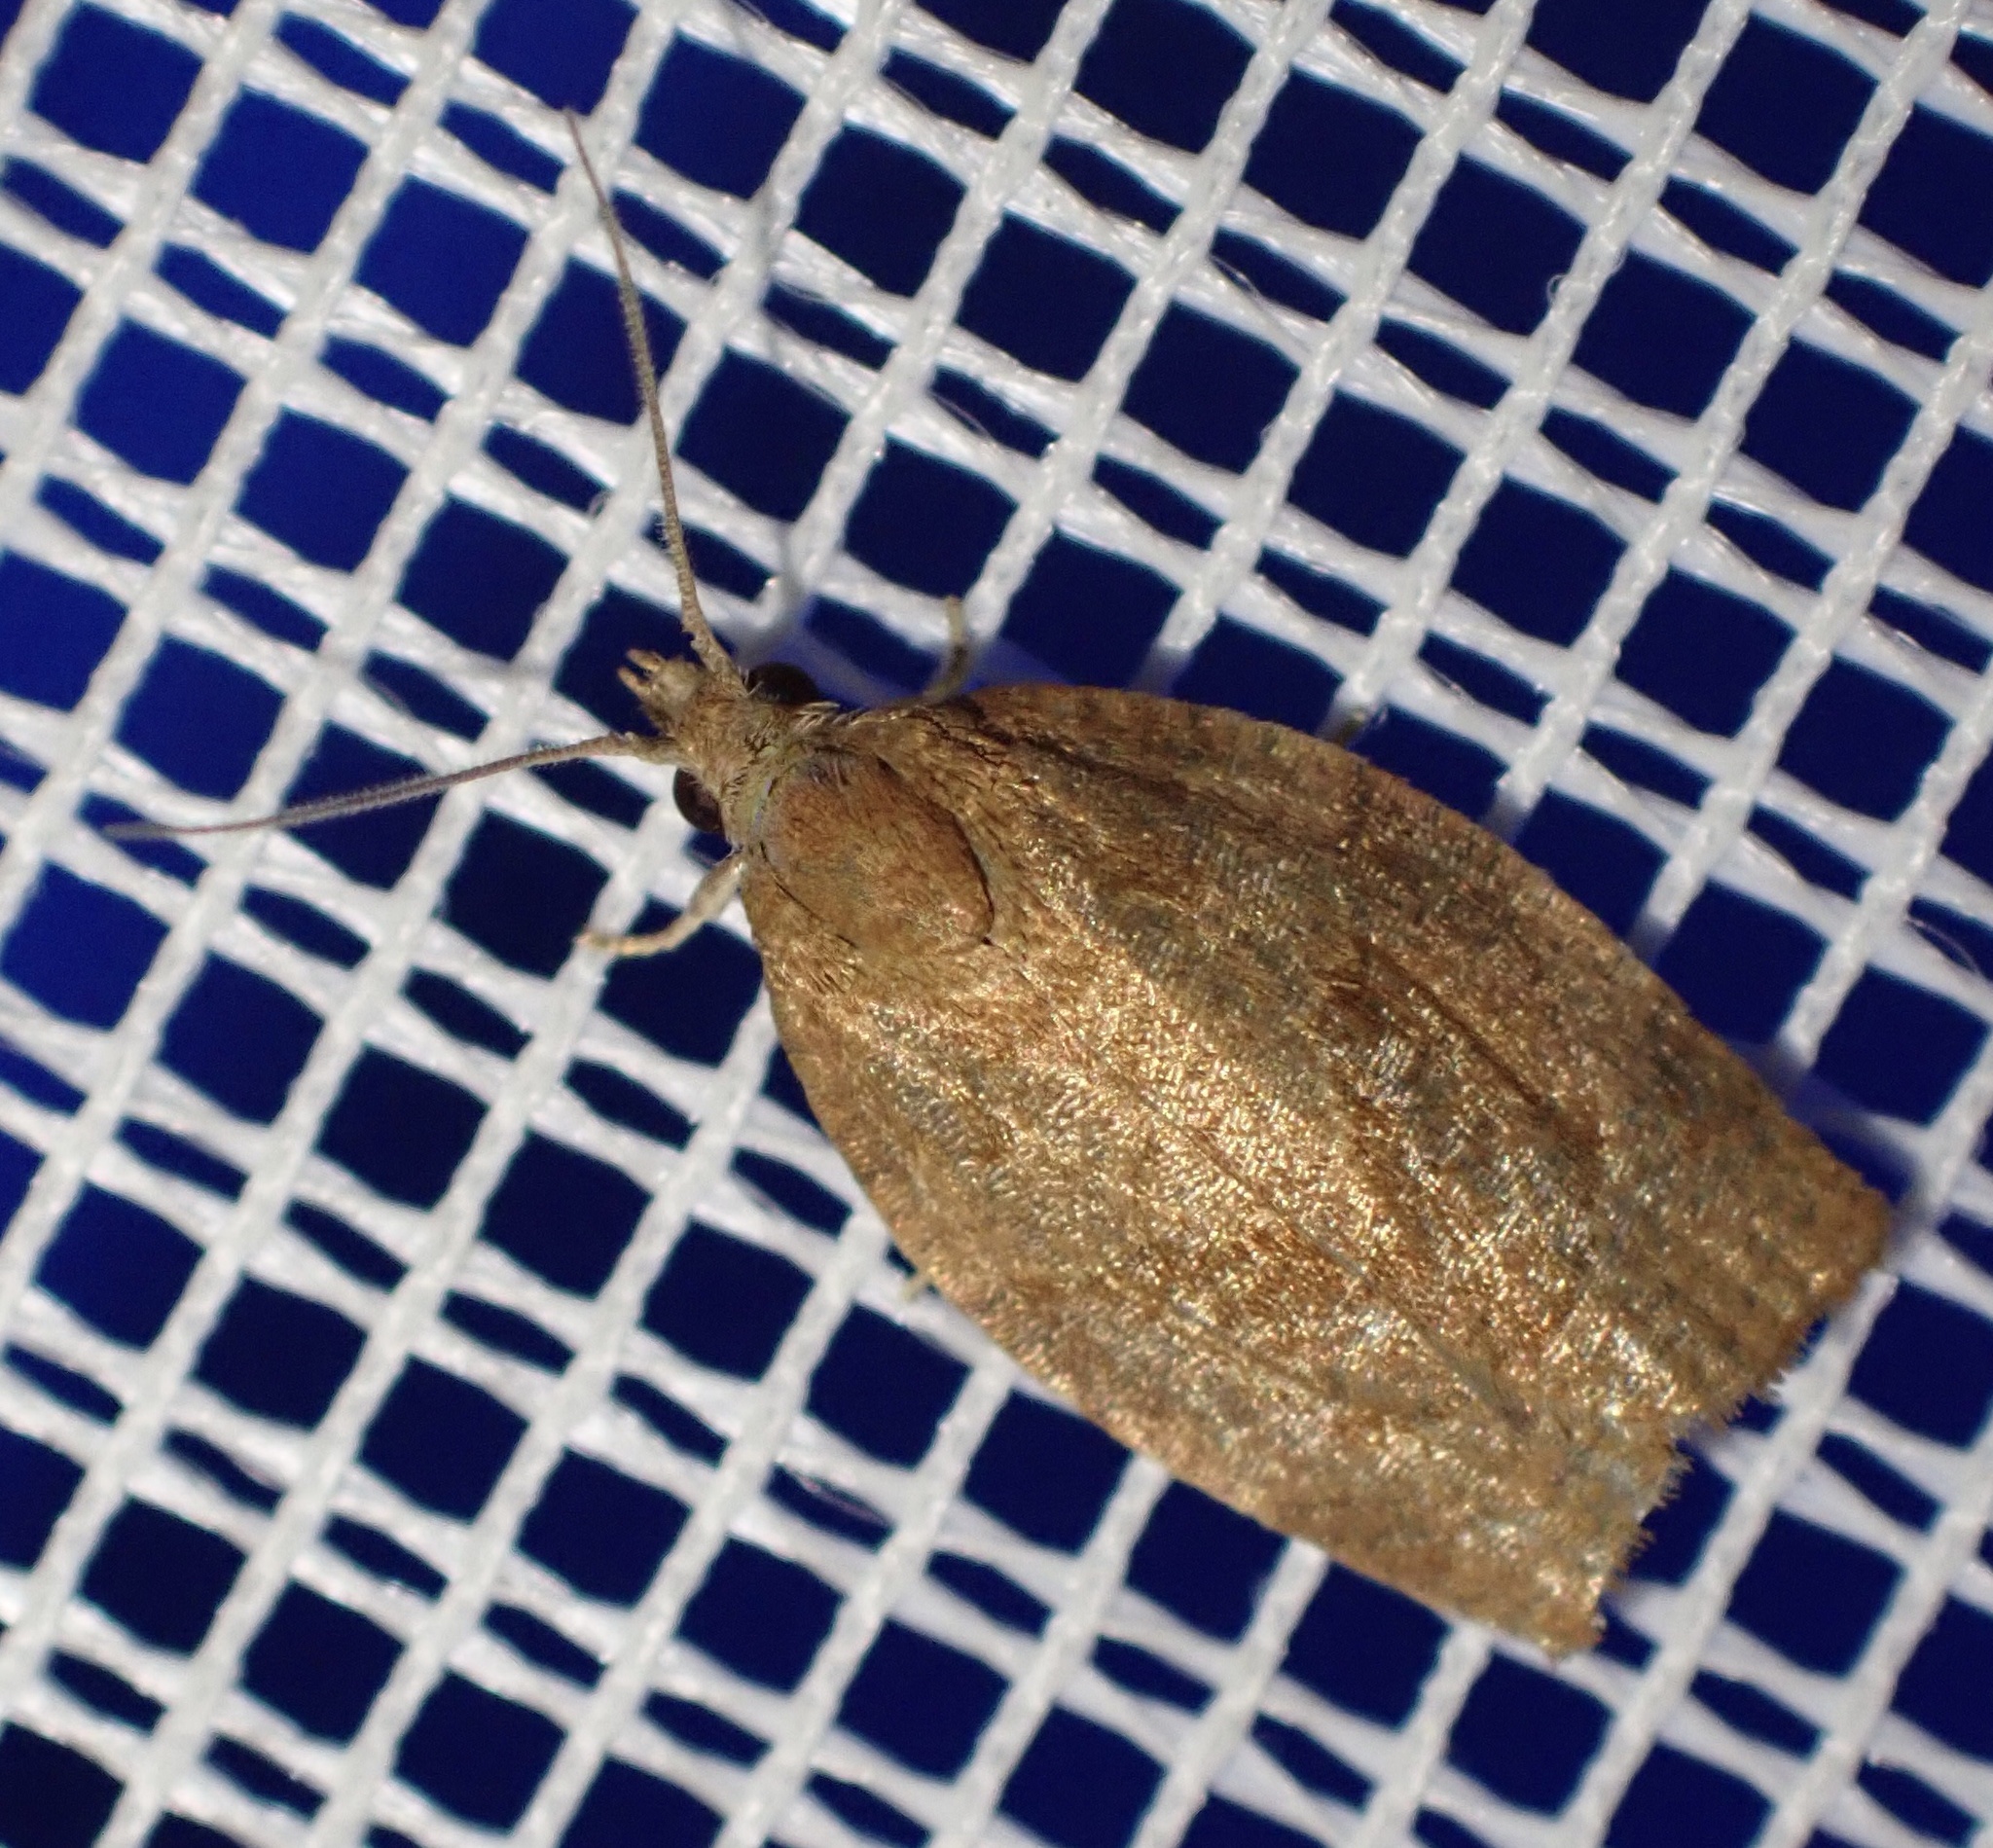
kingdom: Animalia
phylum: Arthropoda
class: Insecta
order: Lepidoptera
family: Tortricidae
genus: Pandemis
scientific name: Pandemis heparana
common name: Dark fruit-tree tortrix
